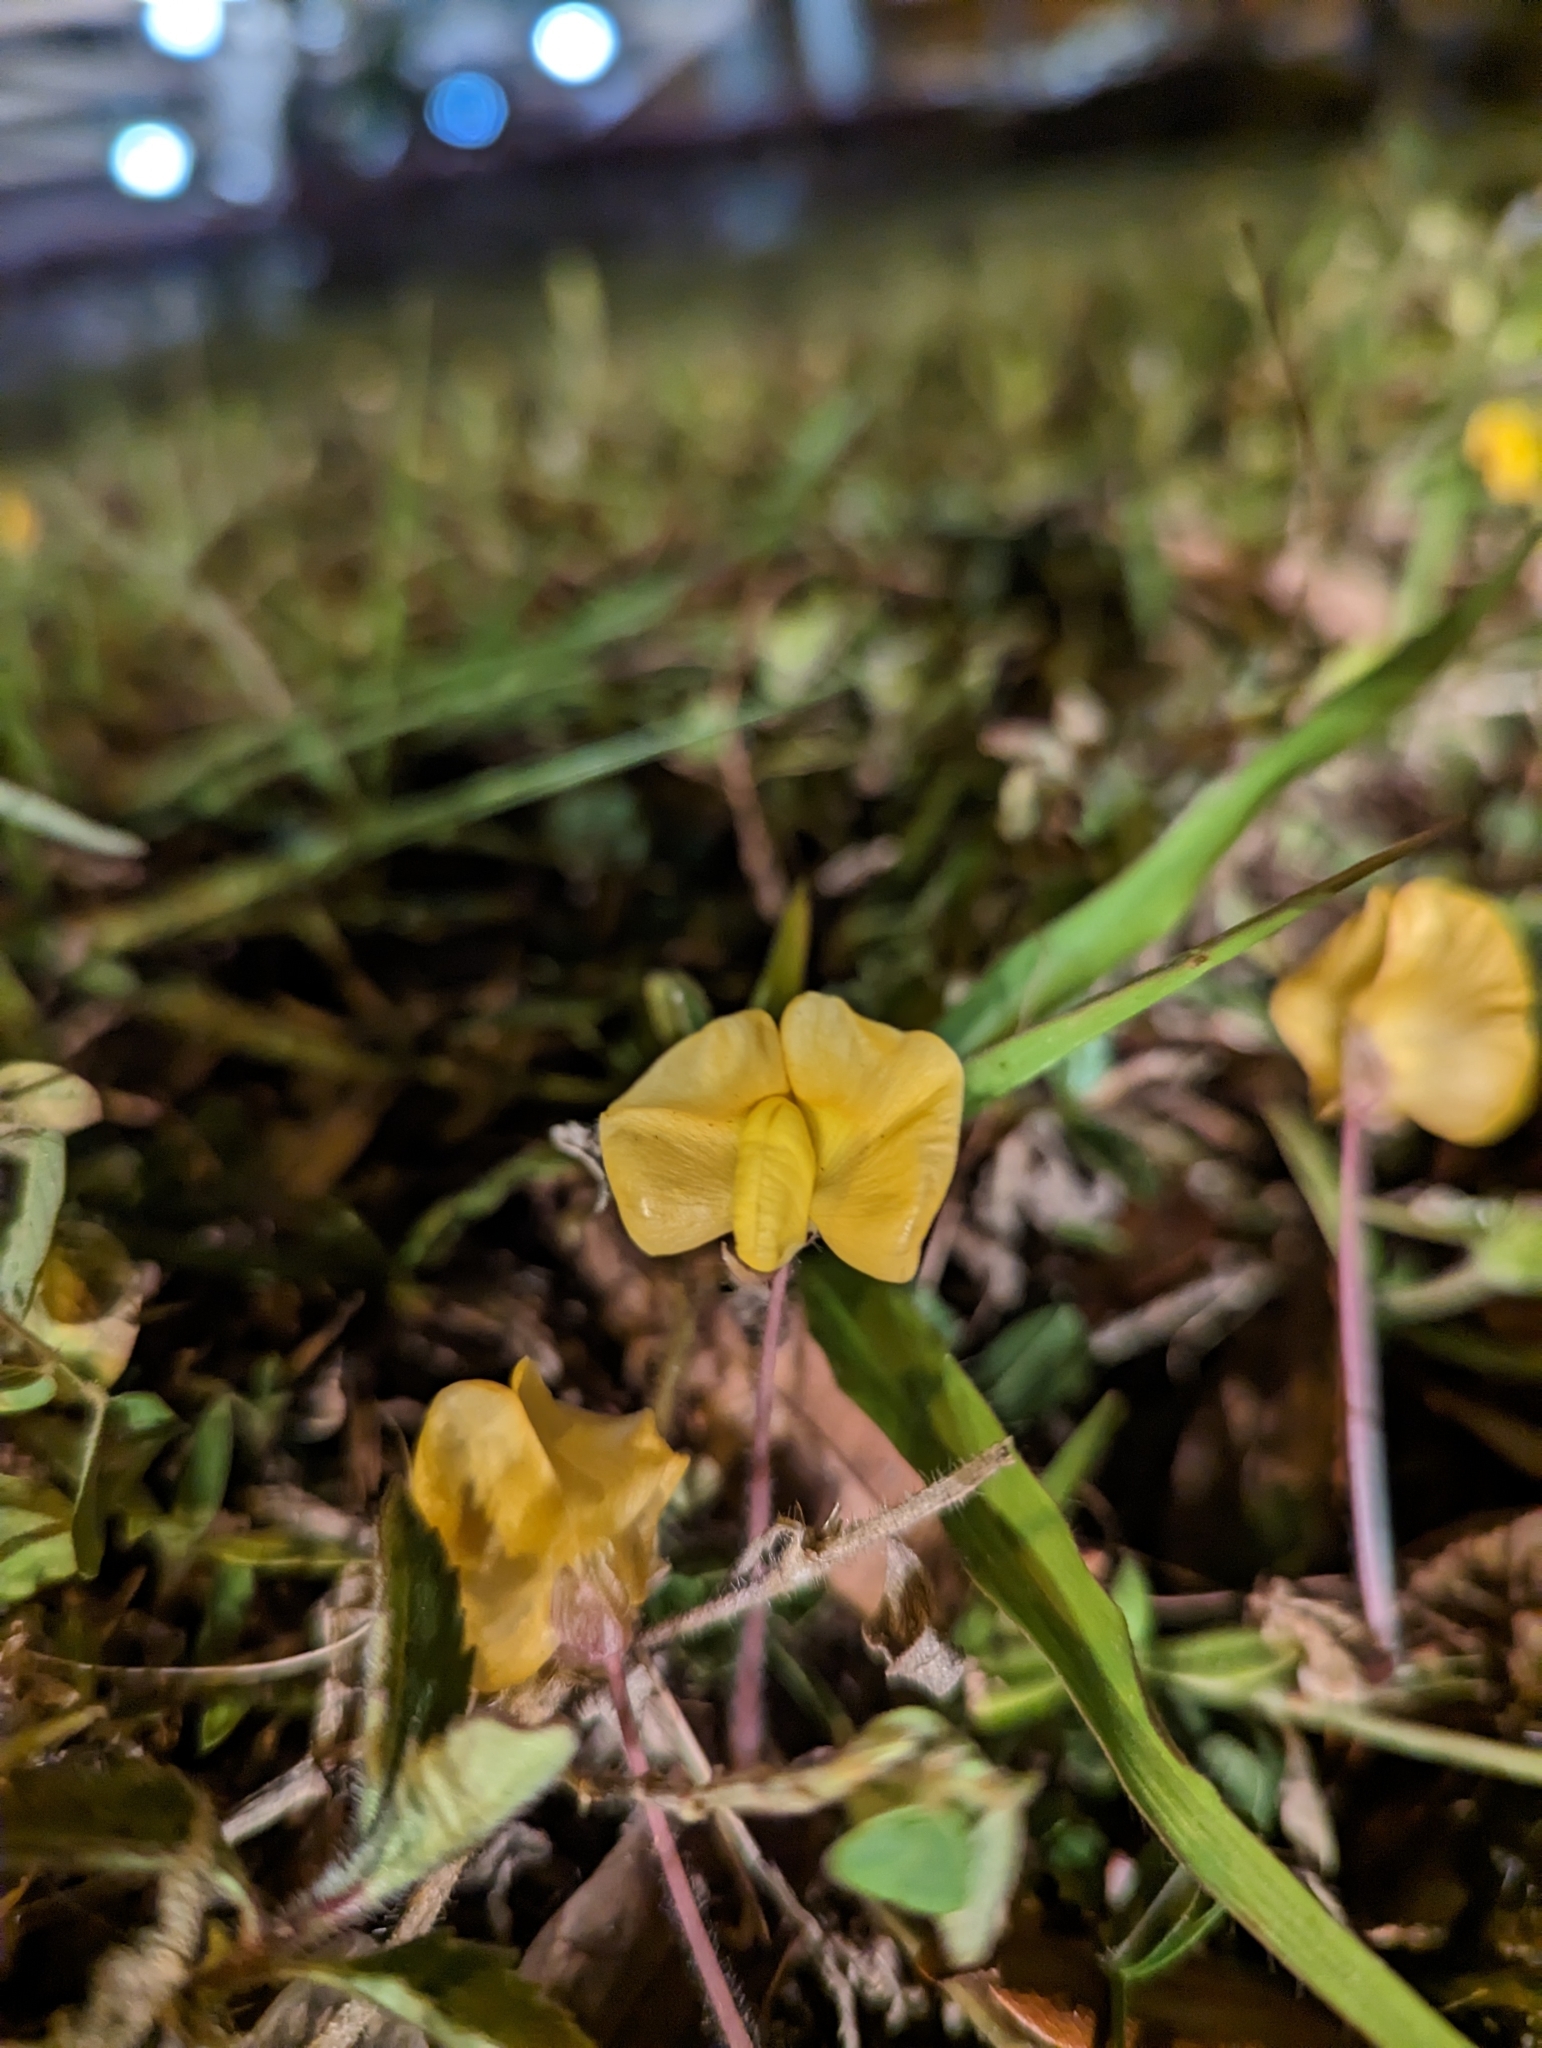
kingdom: Plantae
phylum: Tracheophyta
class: Magnoliopsida
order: Fabales
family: Fabaceae
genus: Vigna
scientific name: Vigna luteola
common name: Hairypod cowpea
